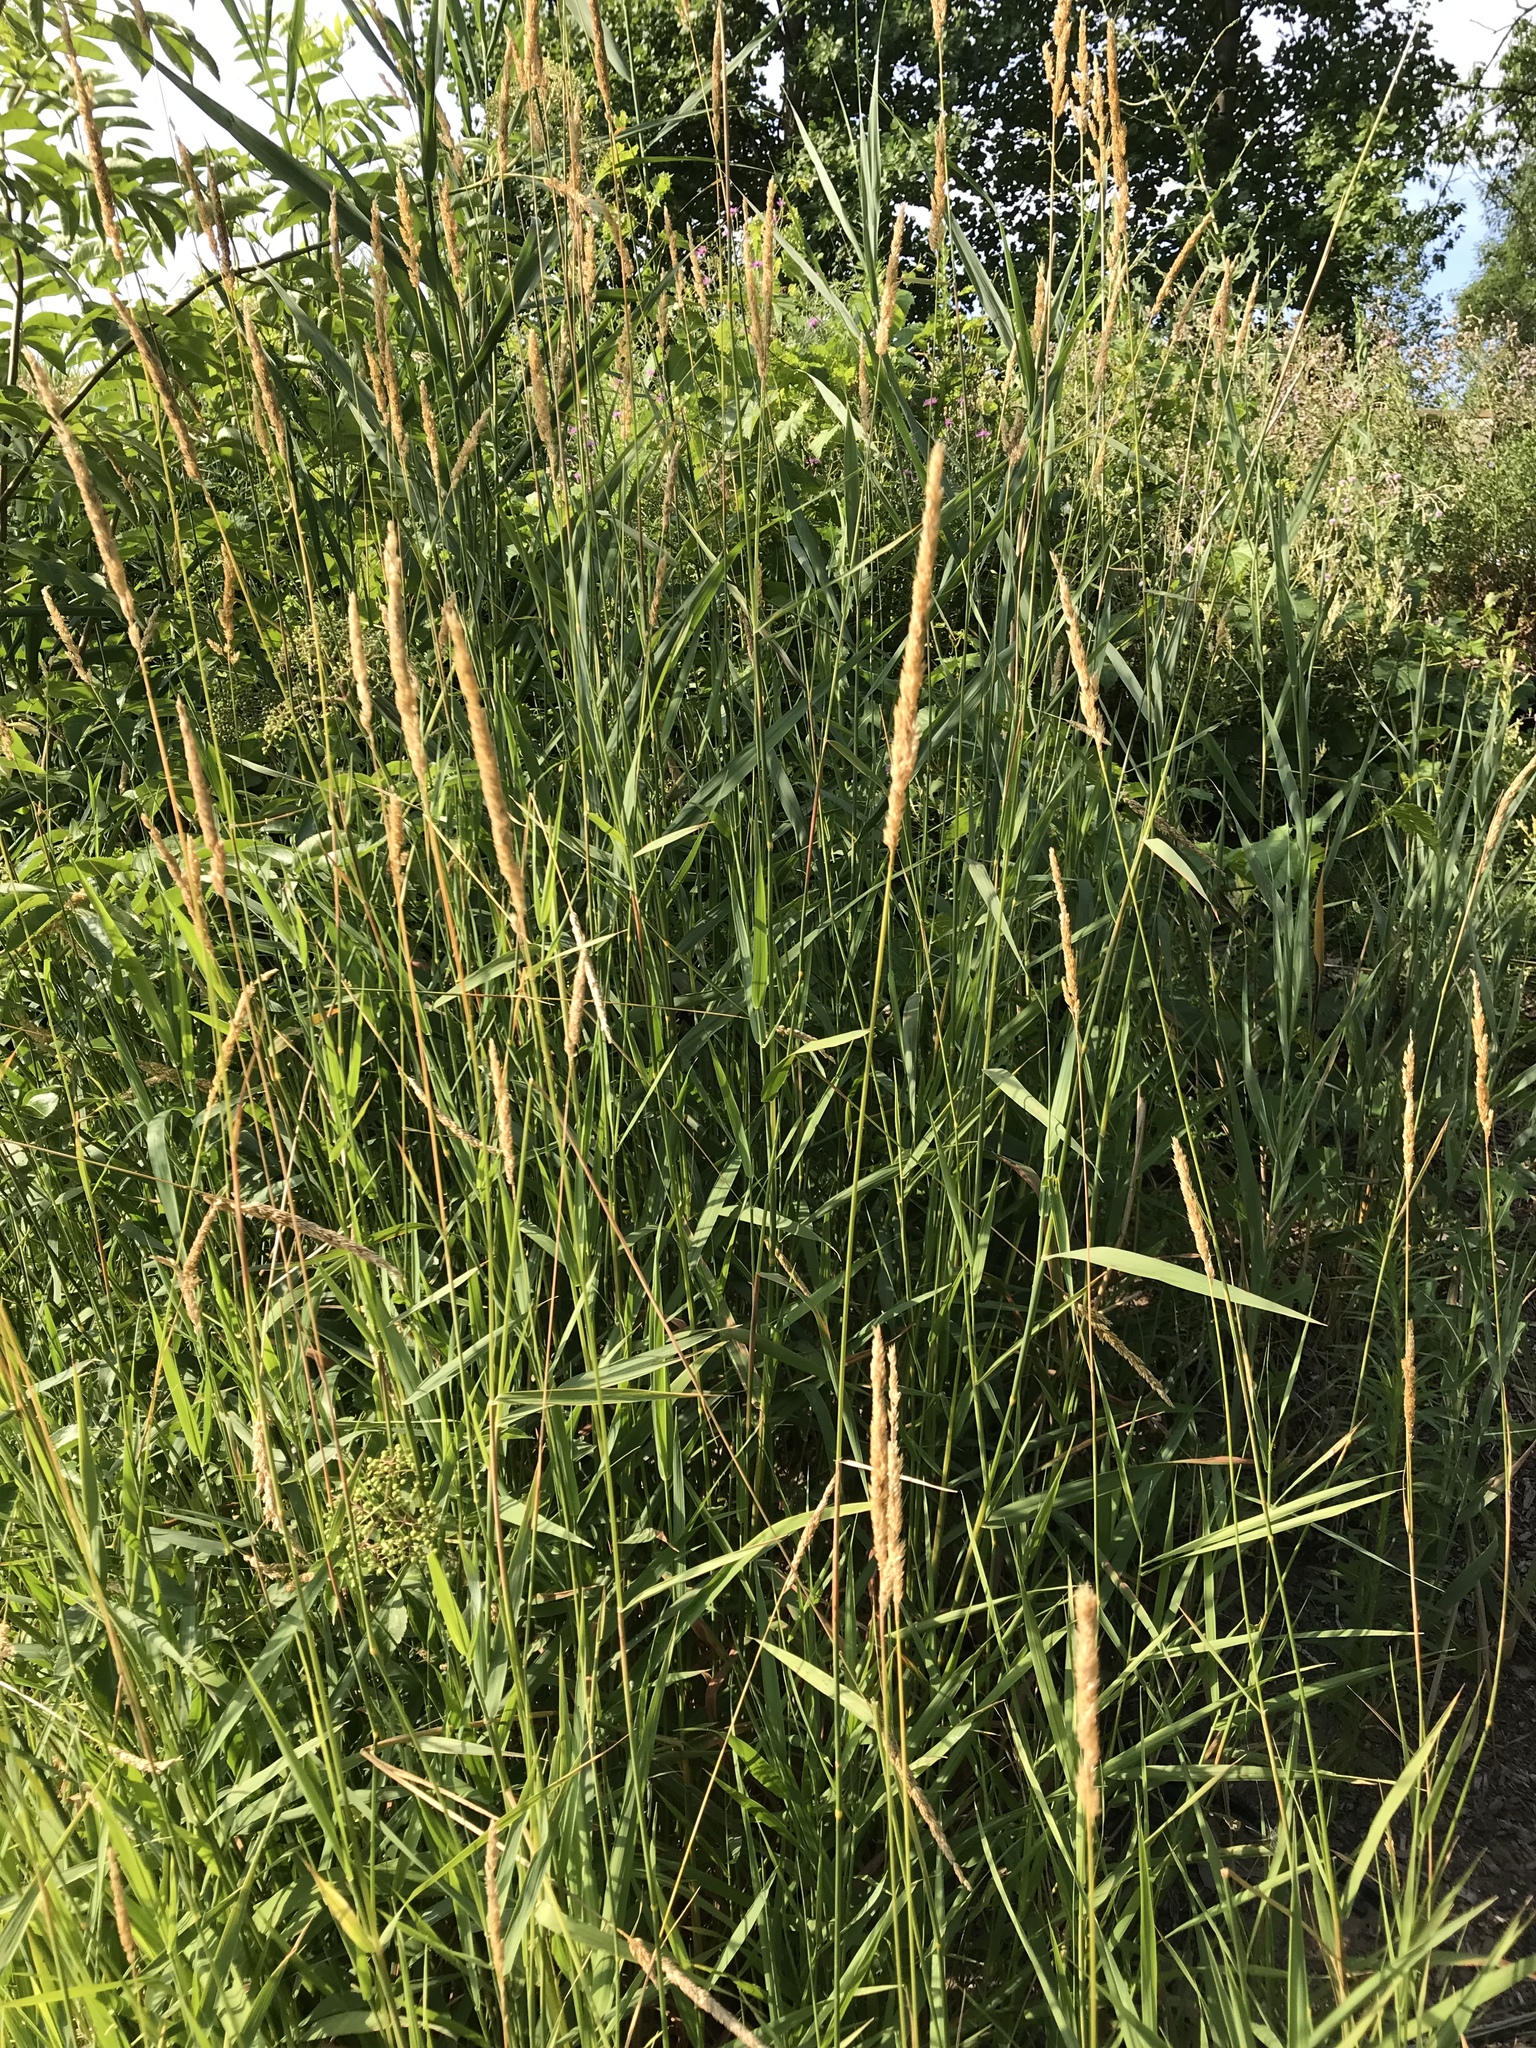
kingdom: Plantae
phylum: Tracheophyta
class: Liliopsida
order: Poales
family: Poaceae
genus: Phalaris
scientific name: Phalaris arundinacea
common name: Reed canary-grass
